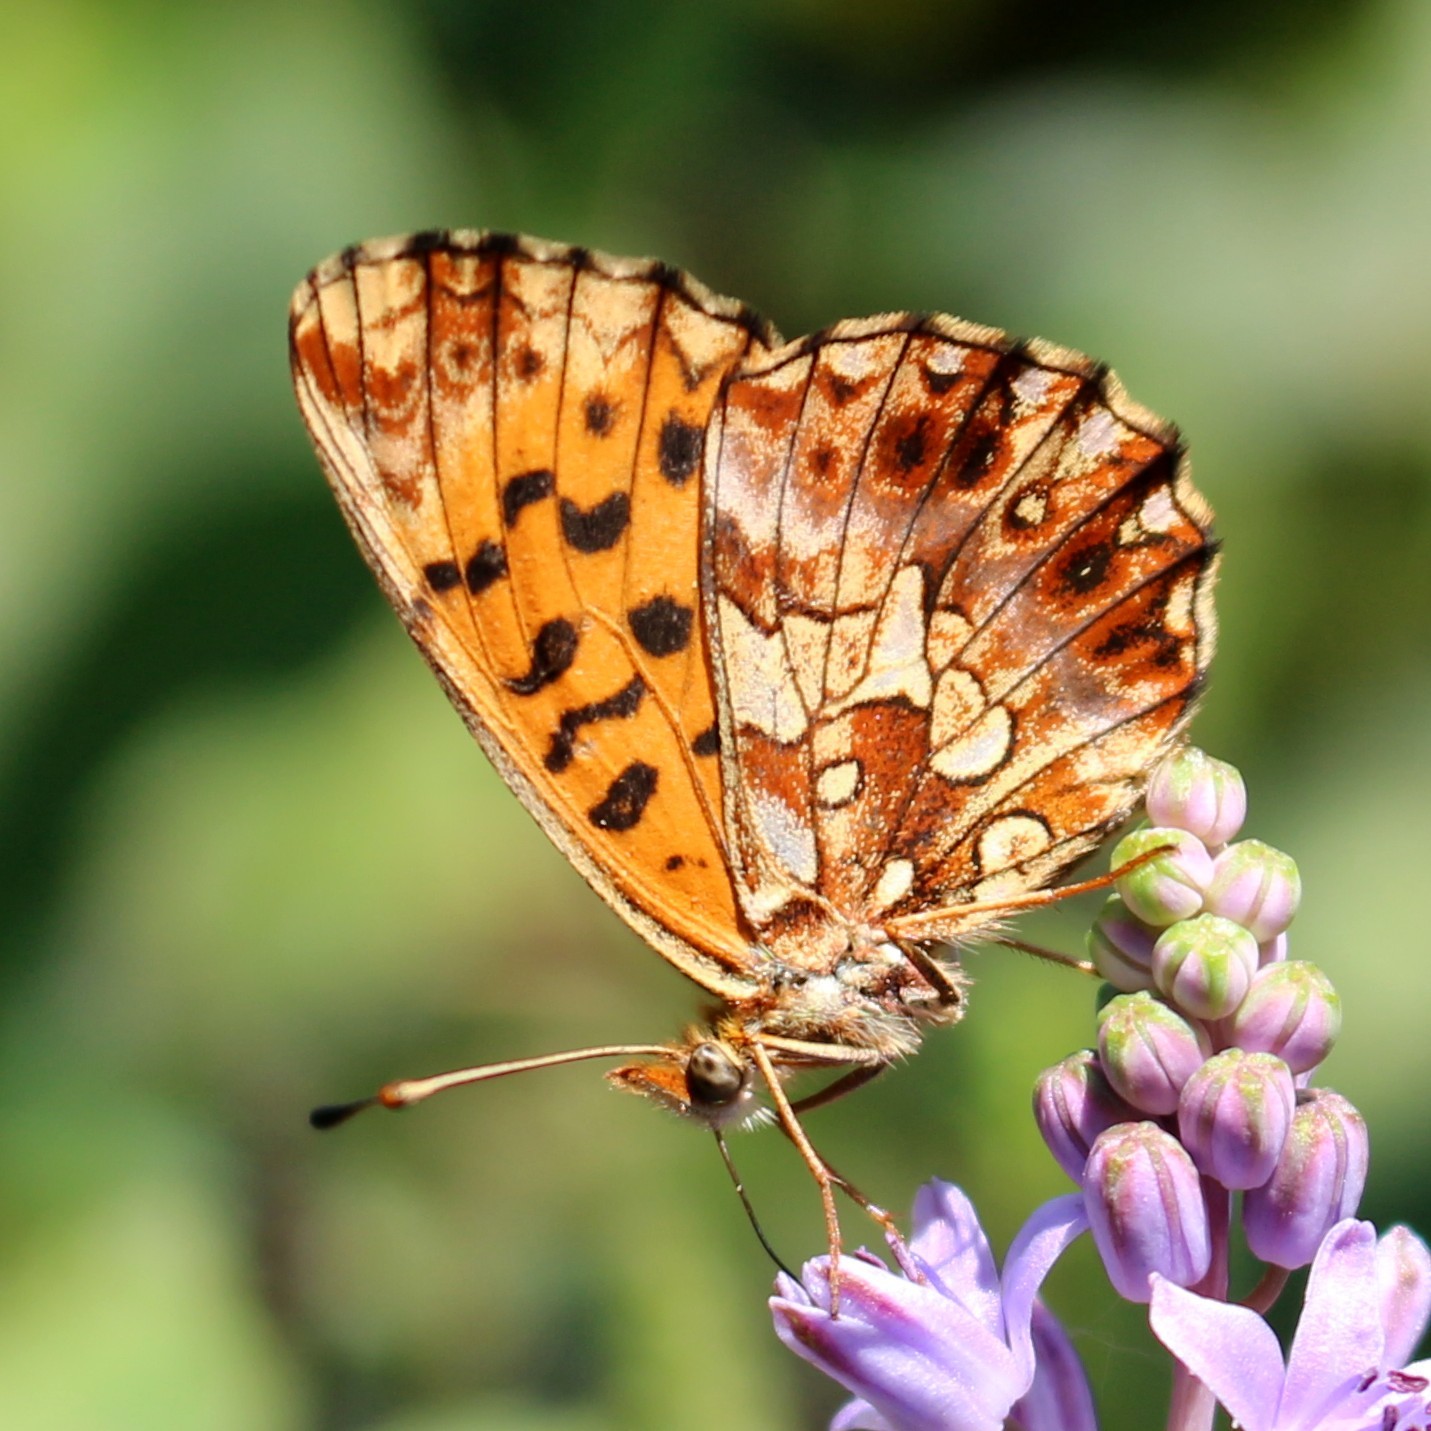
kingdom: Animalia
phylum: Arthropoda
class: Insecta
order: Lepidoptera
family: Nymphalidae
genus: Boloria
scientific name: Boloria dia
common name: Weaver's fritillary
